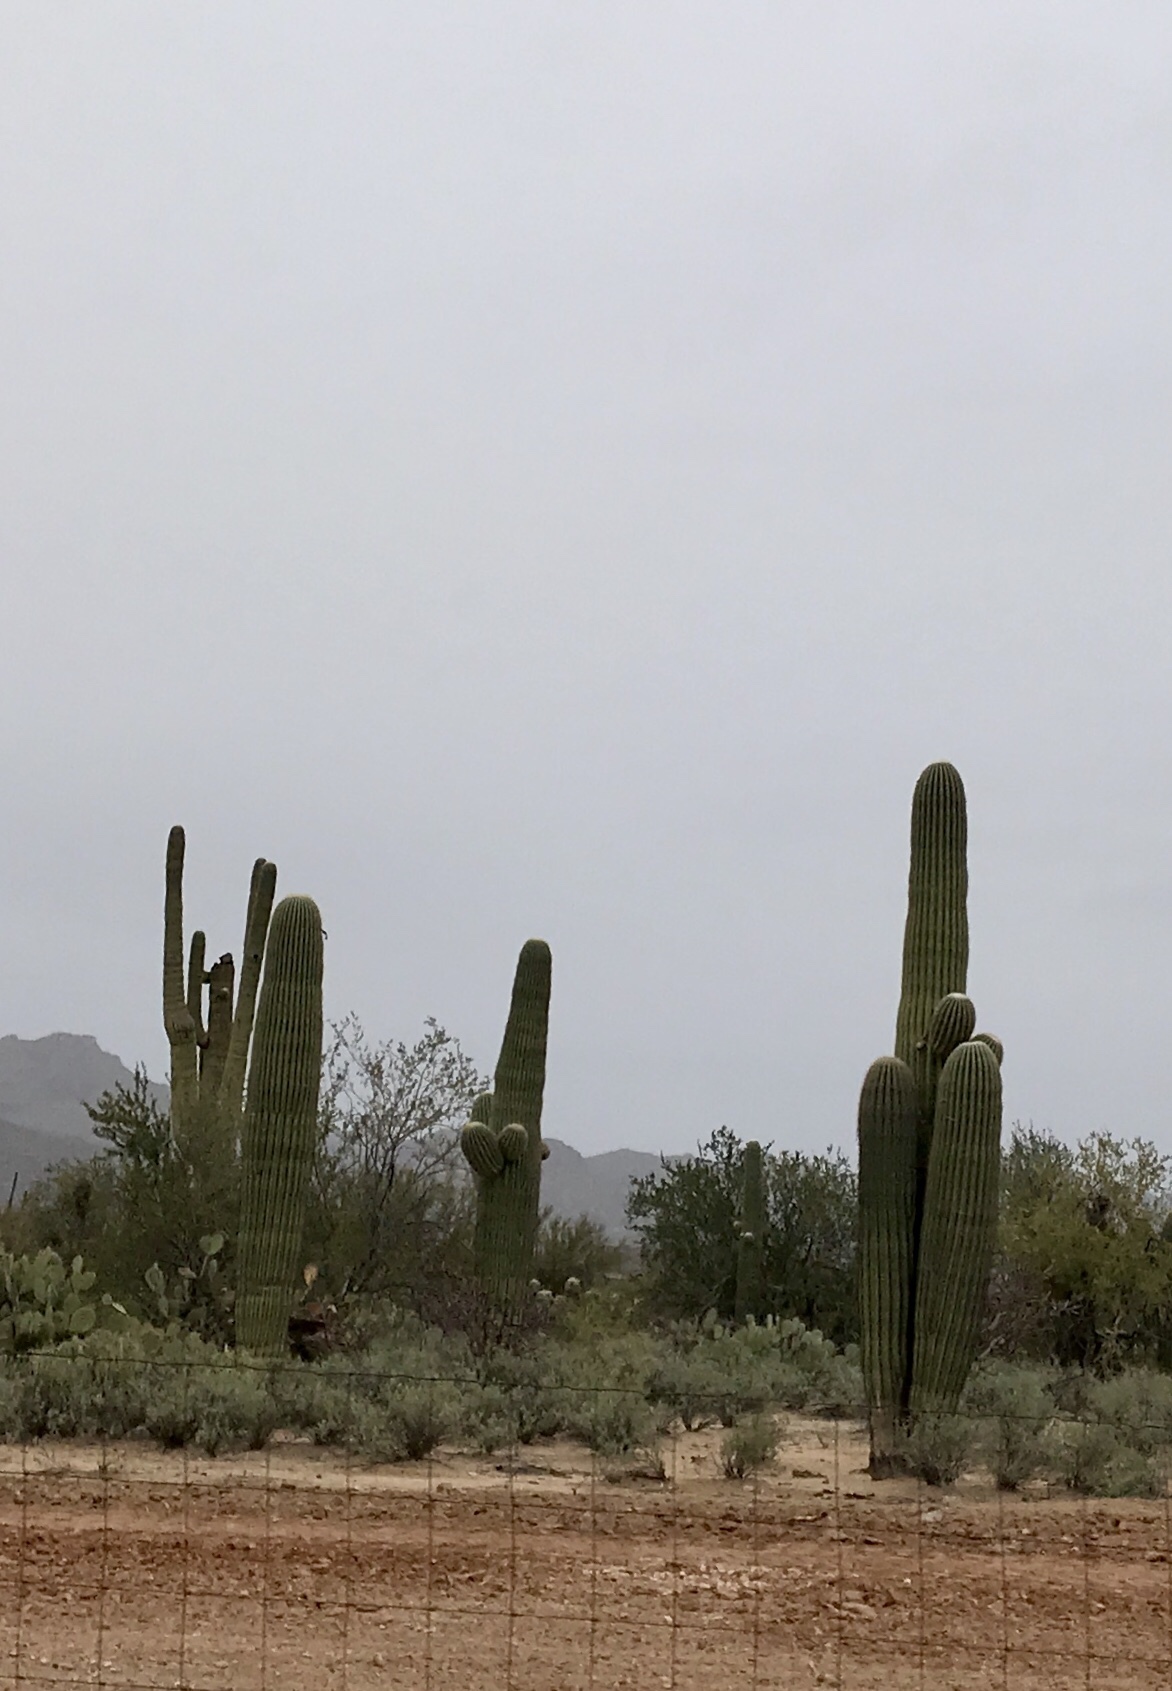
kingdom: Plantae
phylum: Tracheophyta
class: Magnoliopsida
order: Caryophyllales
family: Cactaceae
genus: Carnegiea
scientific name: Carnegiea gigantea
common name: Saguaro
